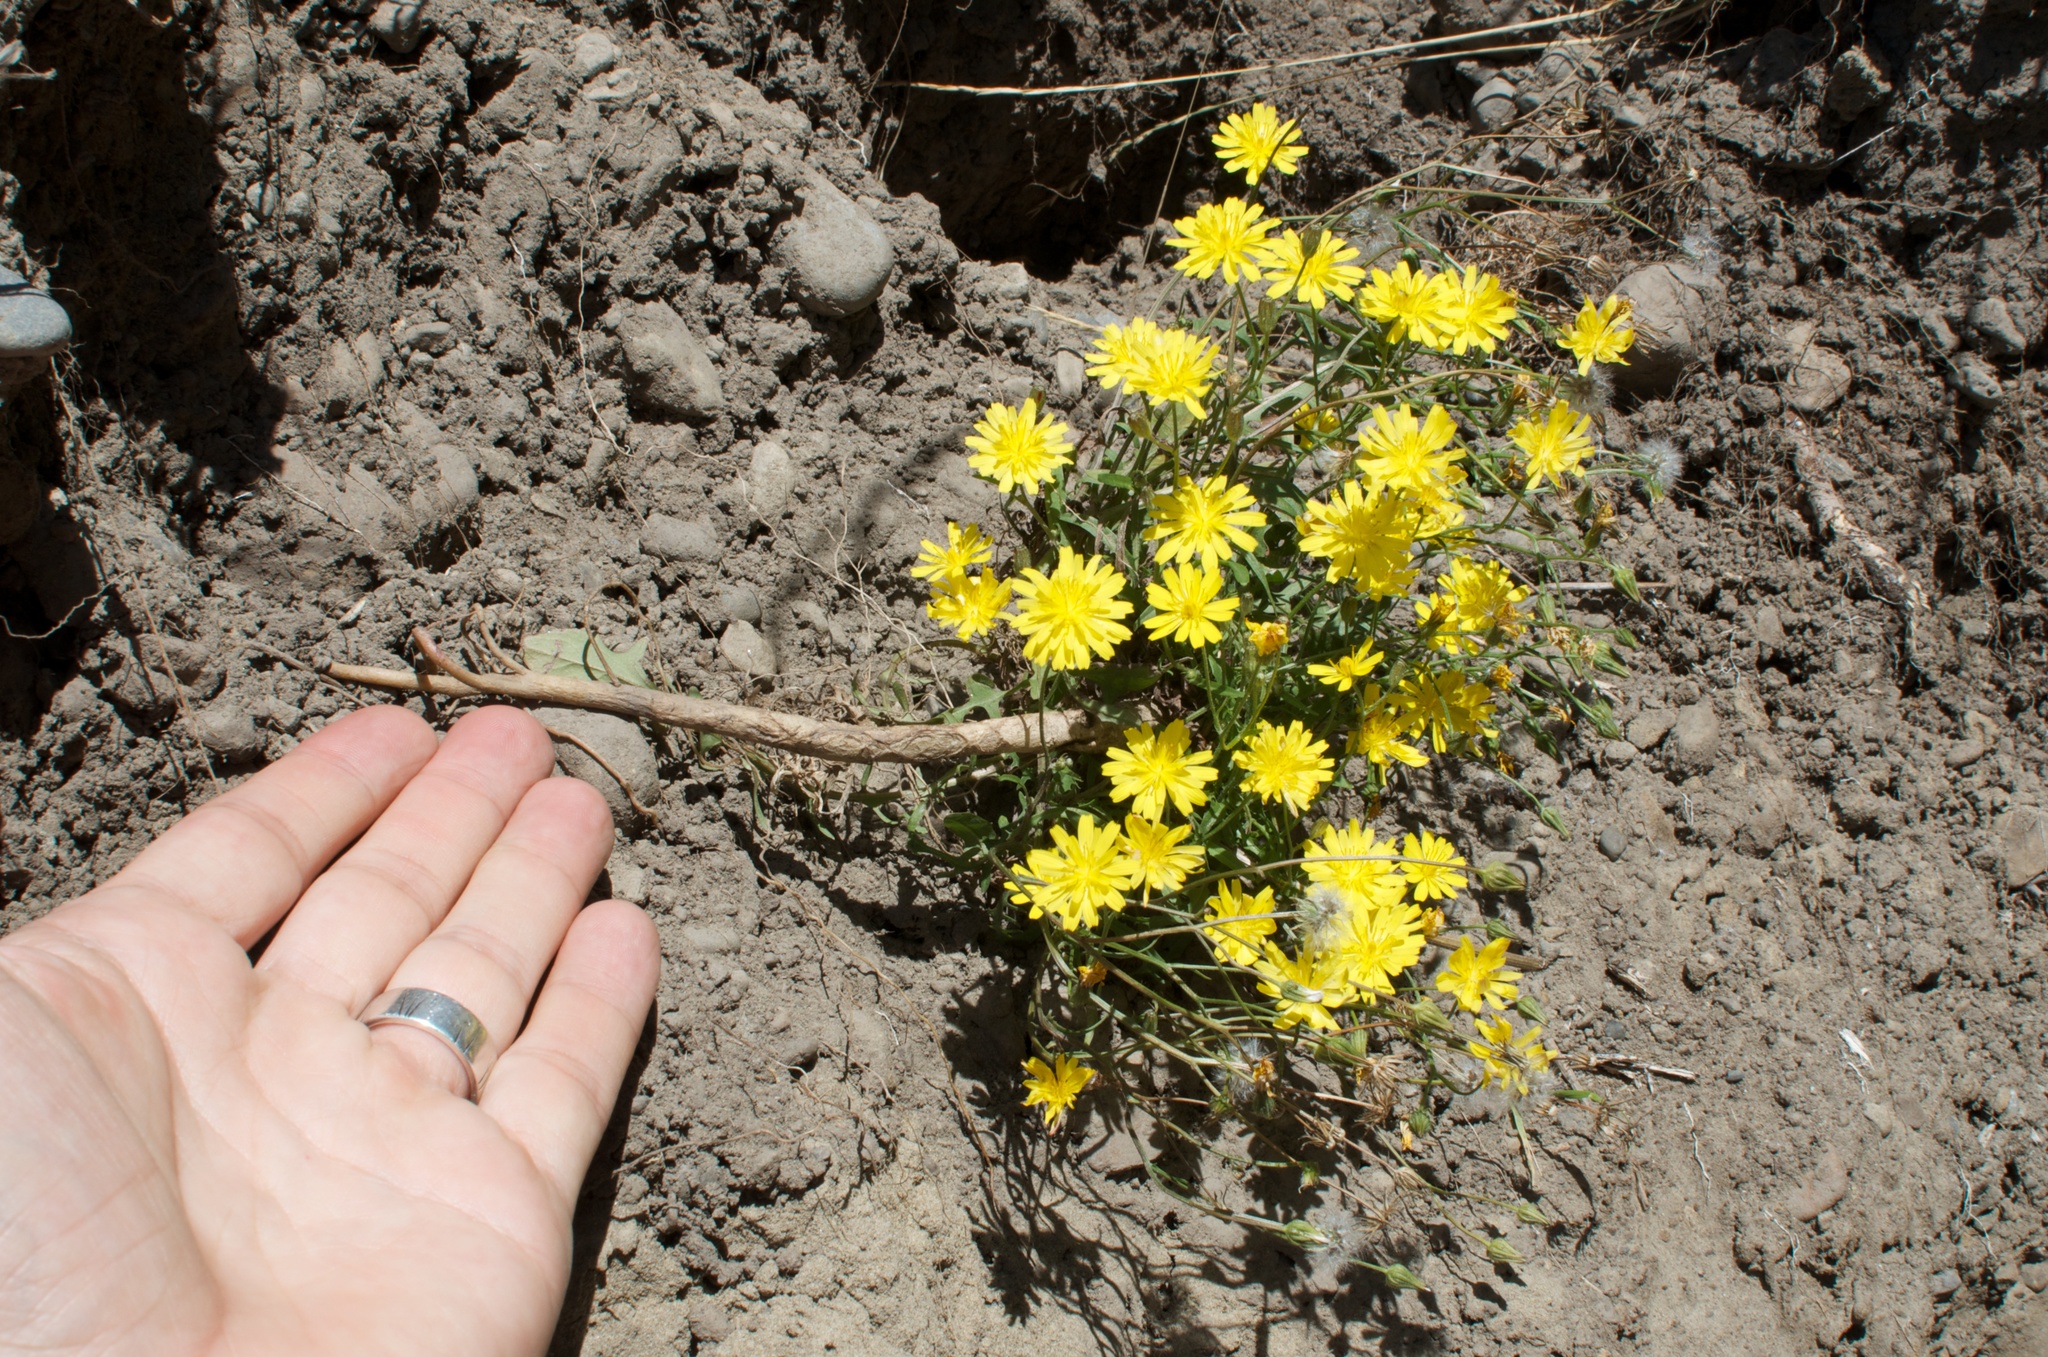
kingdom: Plantae
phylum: Tracheophyta
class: Magnoliopsida
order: Asterales
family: Asteraceae
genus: Crepis
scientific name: Crepis capillaris
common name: Smooth hawksbeard
